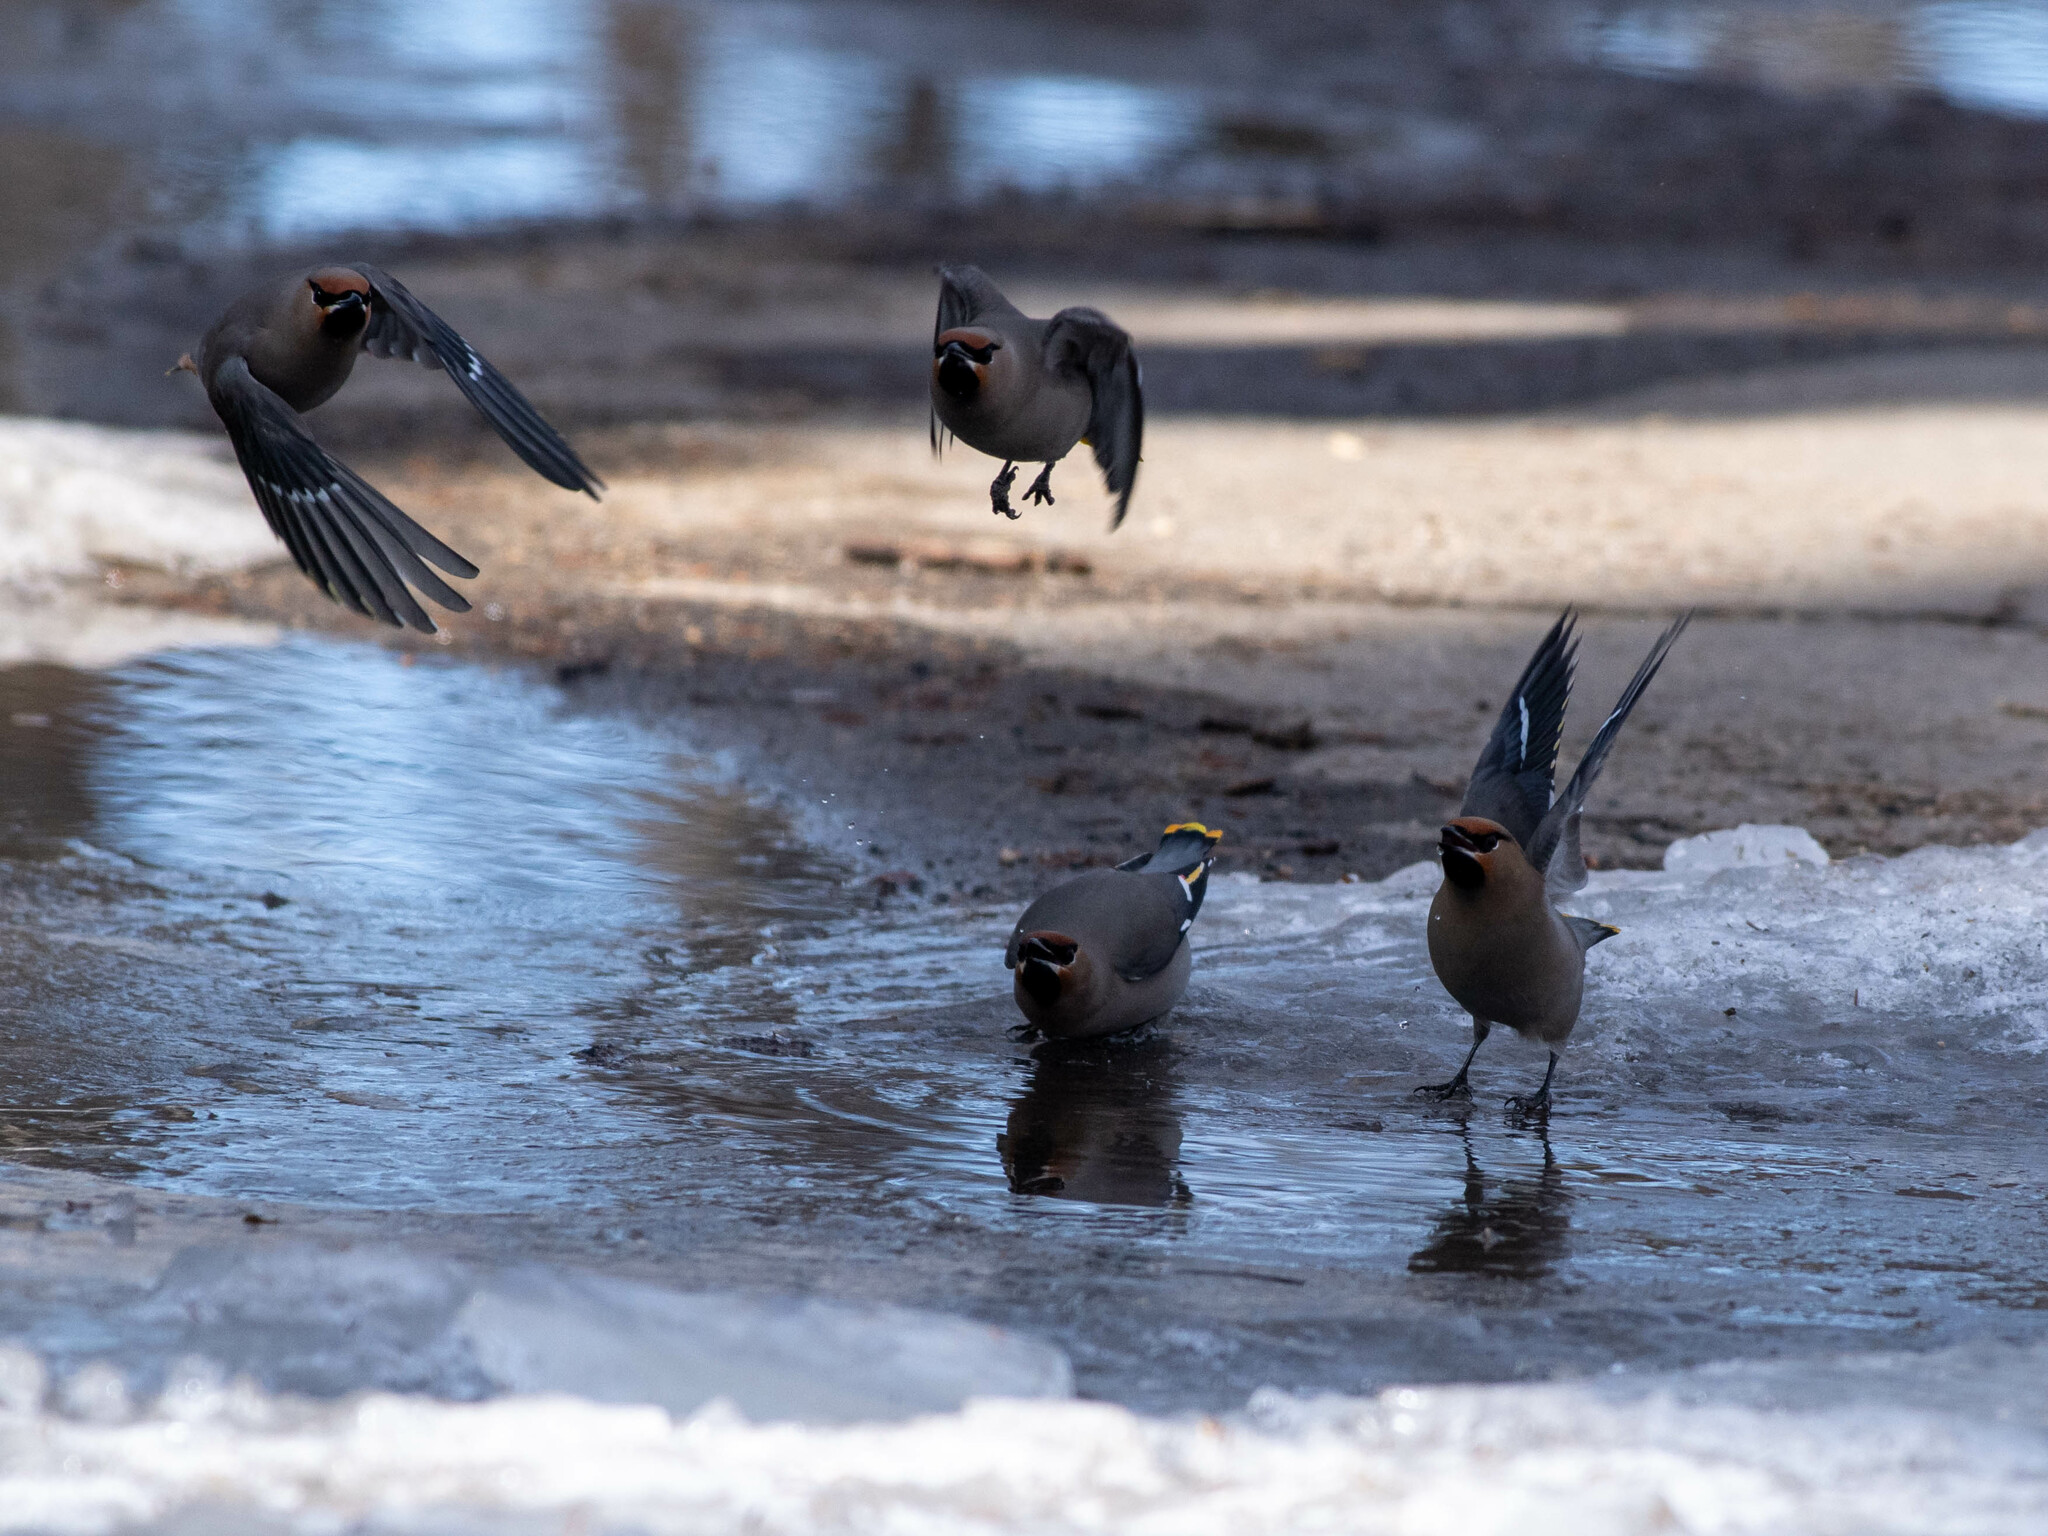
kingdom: Animalia
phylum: Chordata
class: Aves
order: Passeriformes
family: Bombycillidae
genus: Bombycilla
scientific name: Bombycilla garrulus
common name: Bohemian waxwing
